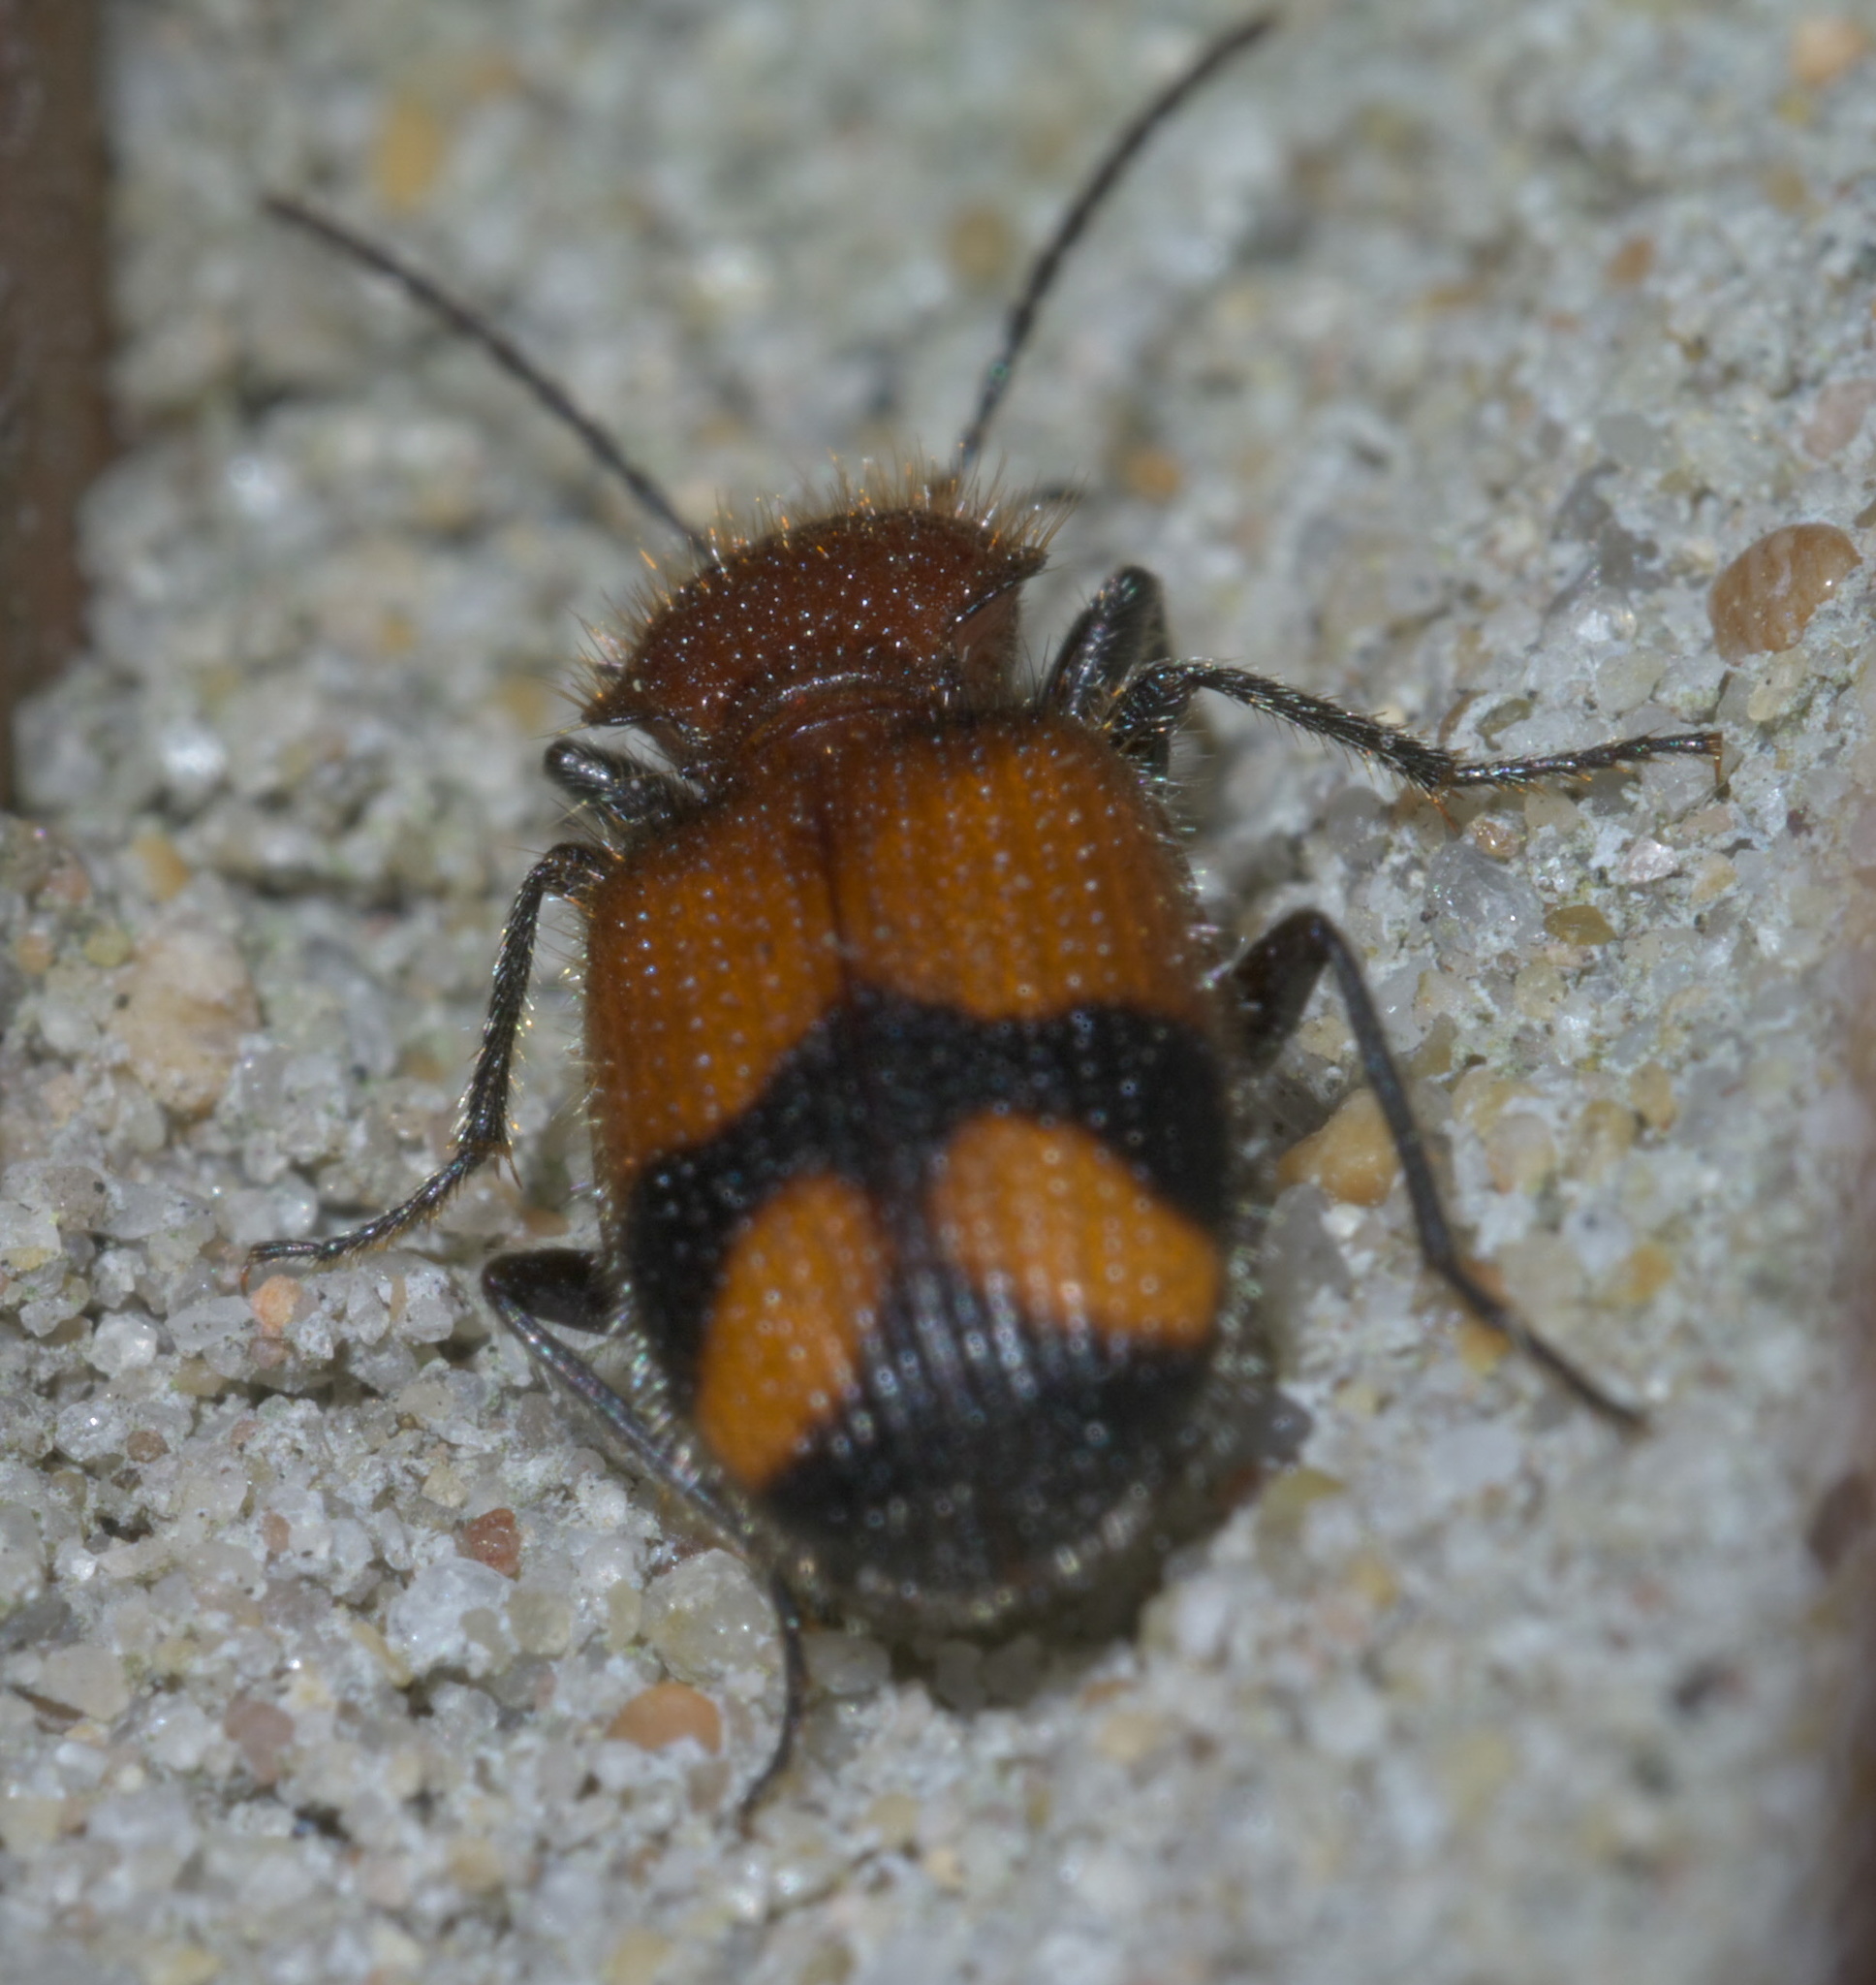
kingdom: Animalia
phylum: Arthropoda
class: Insecta
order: Coleoptera
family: Carabidae
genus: Panagaeus
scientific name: Panagaeus fasciatus
